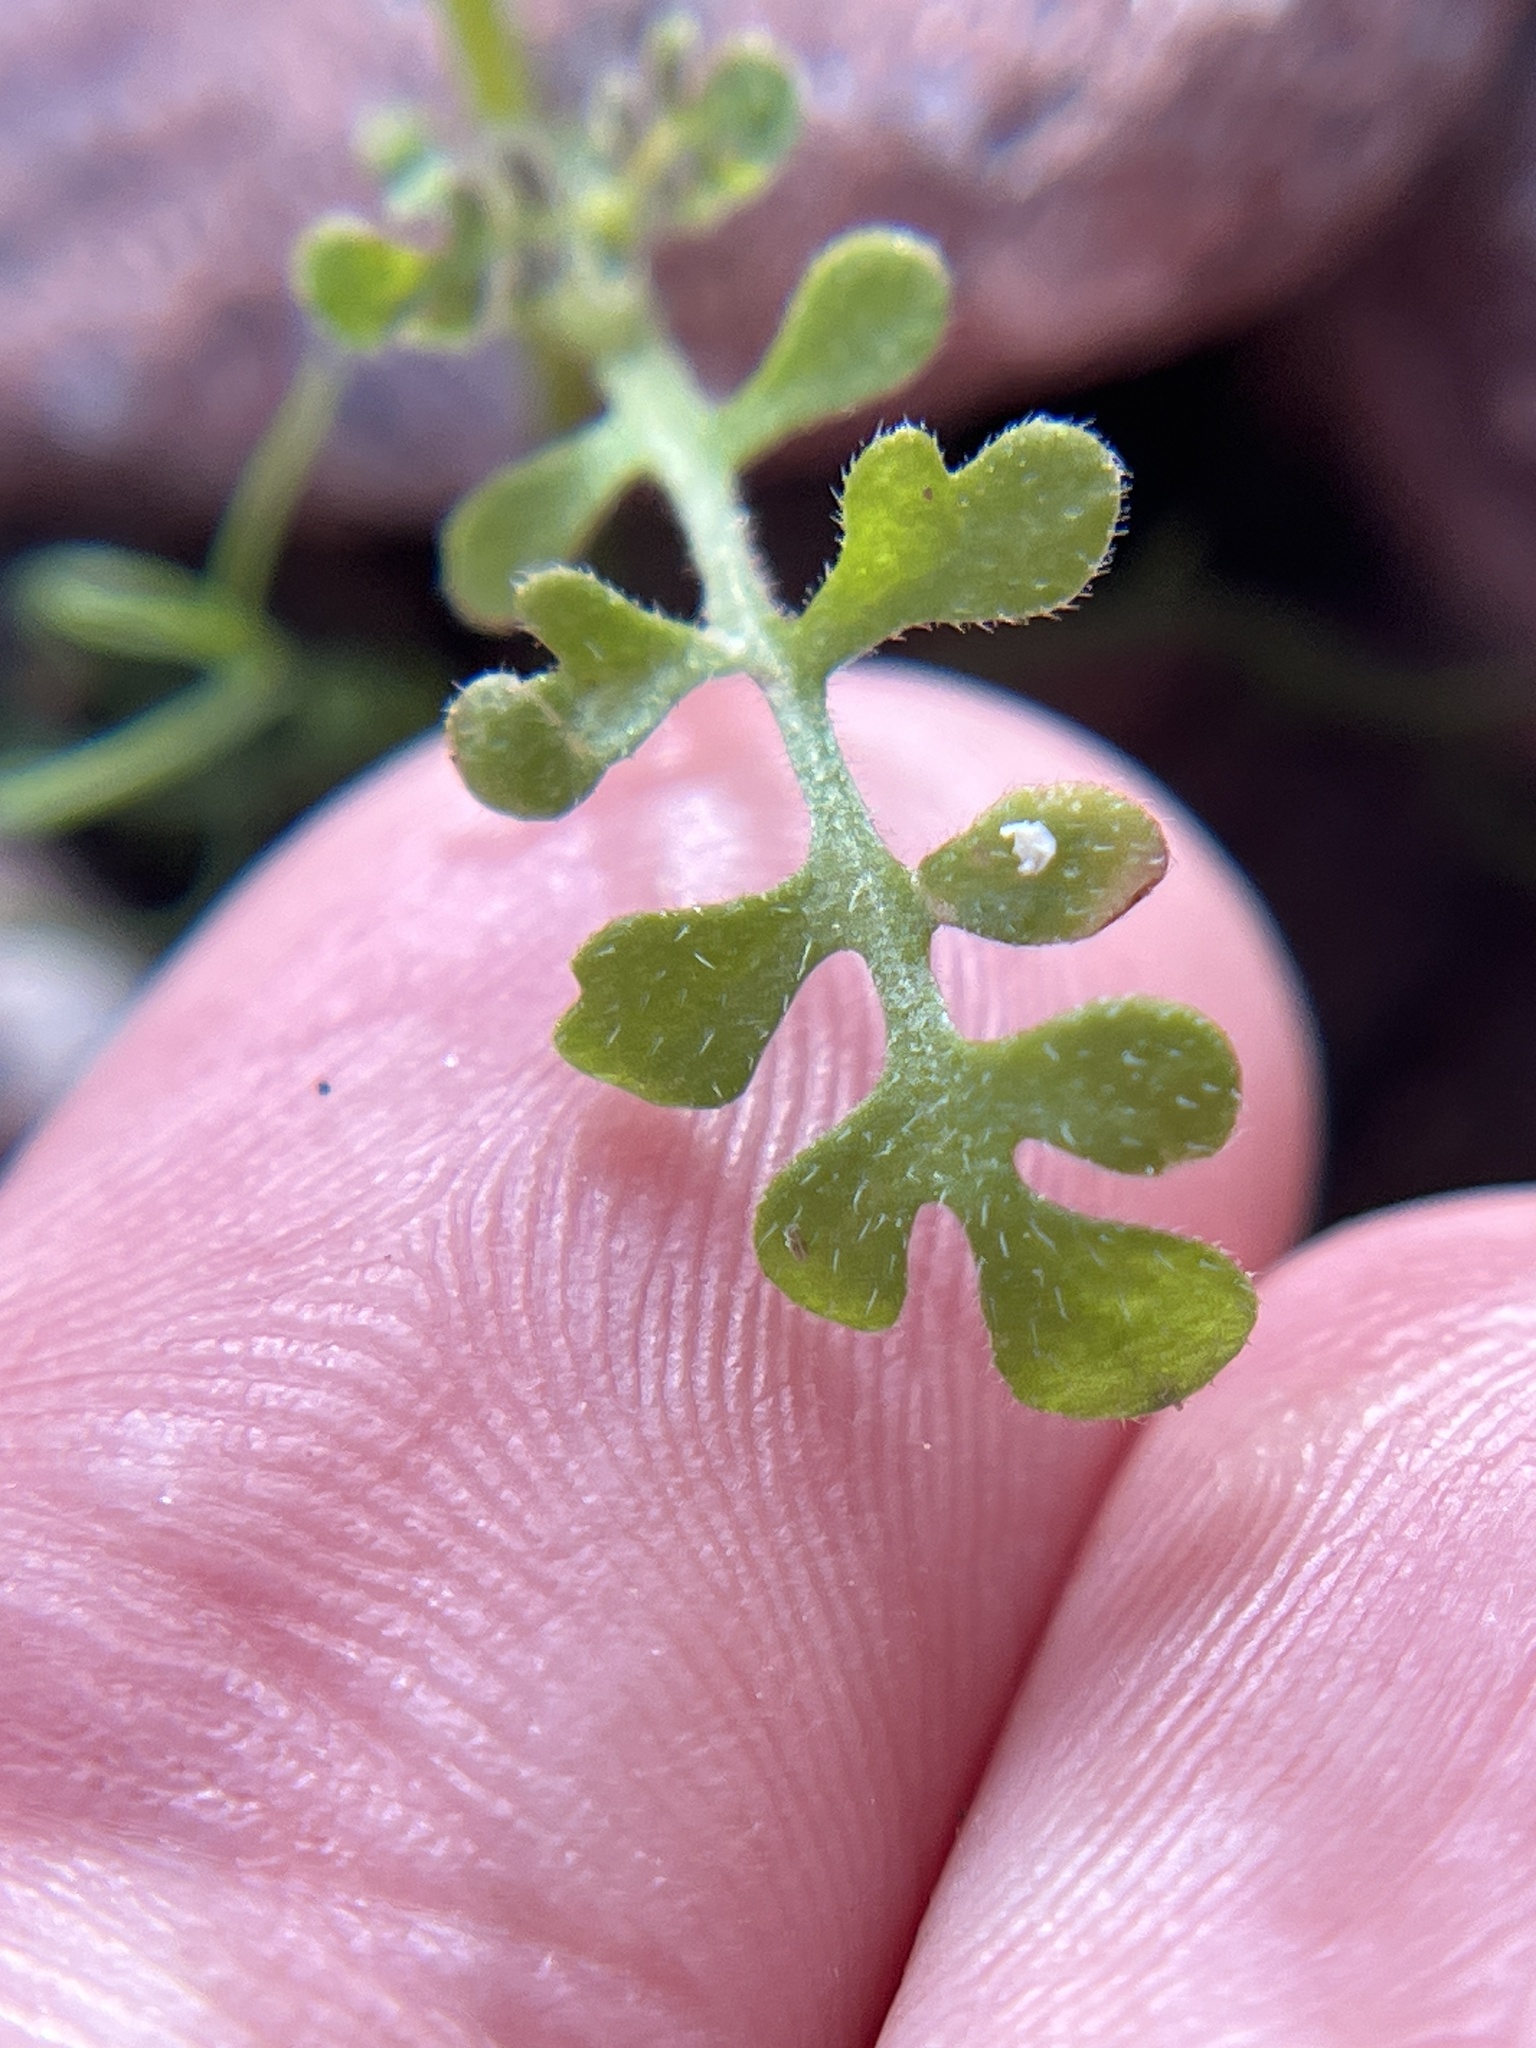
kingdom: Plantae
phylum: Tracheophyta
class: Magnoliopsida
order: Boraginales
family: Hydrophyllaceae
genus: Eucrypta
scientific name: Eucrypta micrantha
